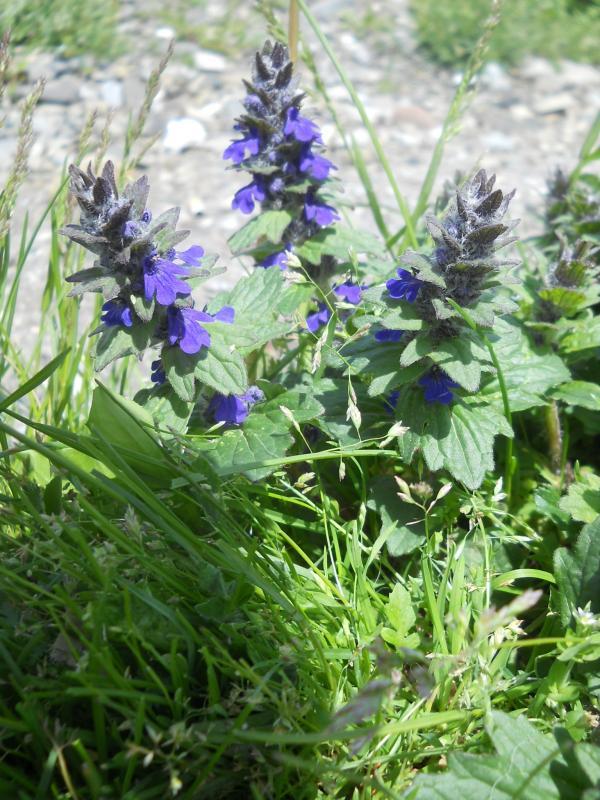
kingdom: Plantae
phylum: Tracheophyta
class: Magnoliopsida
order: Lamiales
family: Lamiaceae
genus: Ajuga
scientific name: Ajuga genevensis
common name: Blue bugle
